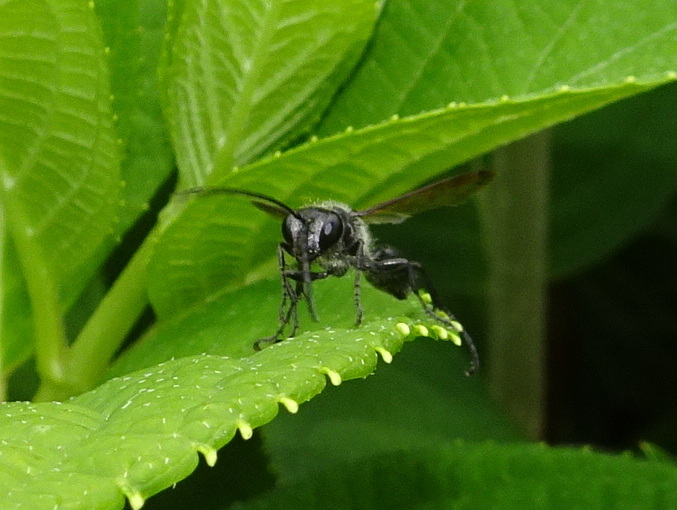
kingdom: Animalia
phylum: Arthropoda
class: Insecta
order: Hymenoptera
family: Sphecidae
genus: Isodontia
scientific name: Isodontia mexicana
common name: Mud dauber
